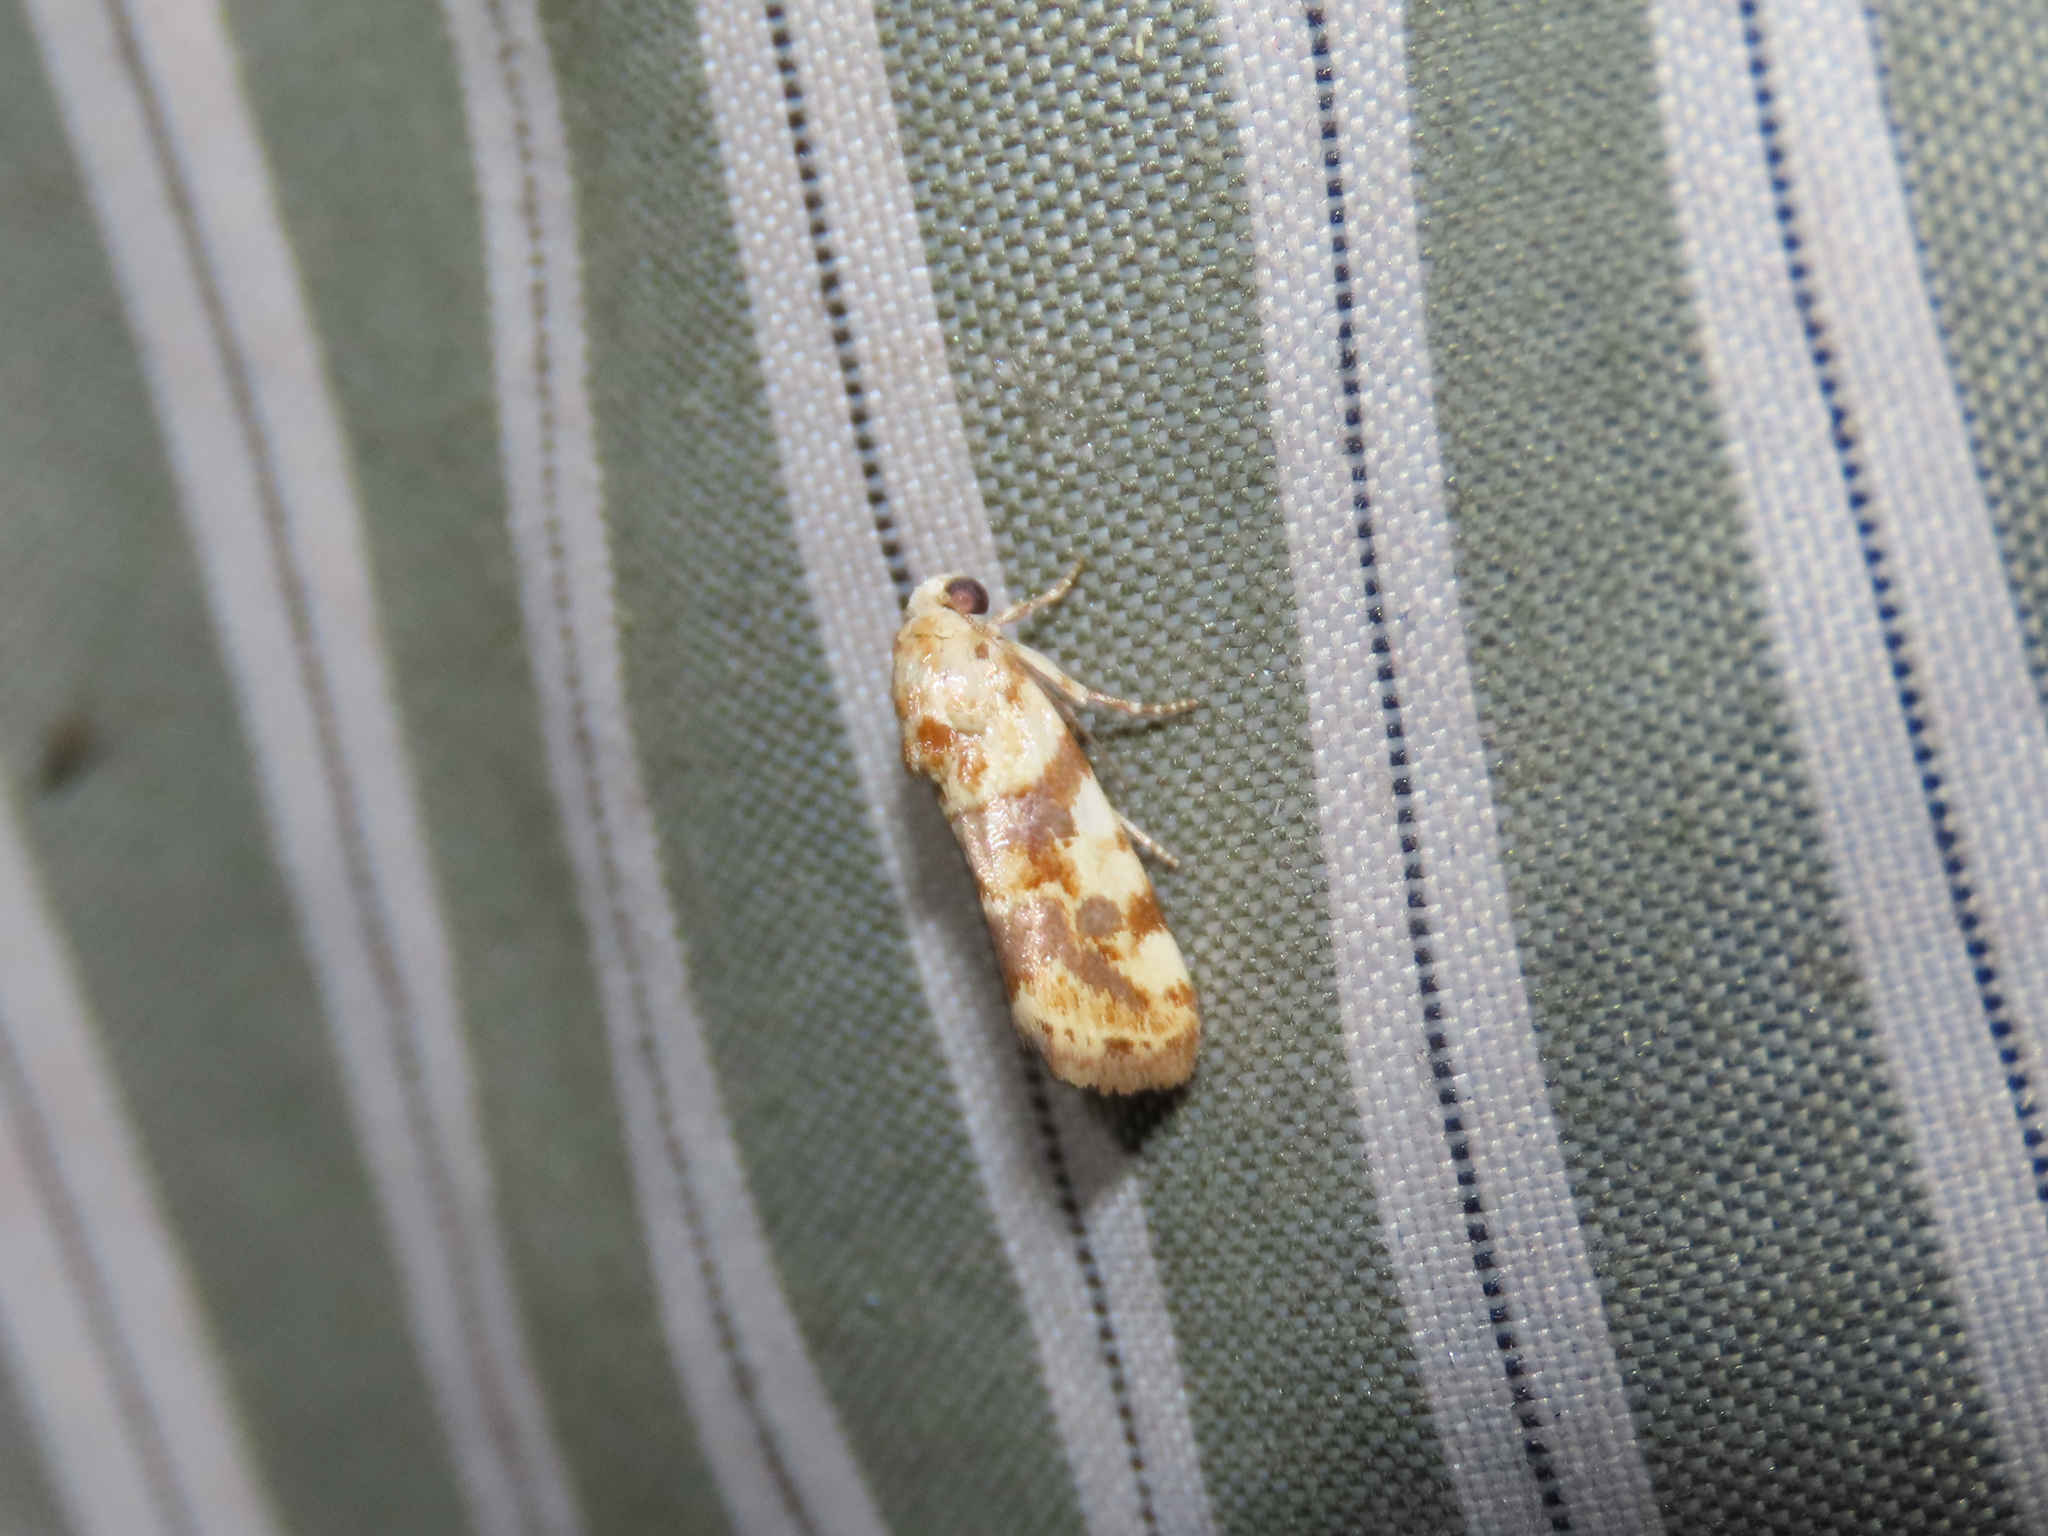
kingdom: Animalia
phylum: Arthropoda
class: Insecta
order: Lepidoptera
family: Noctuidae
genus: Acontia
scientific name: Acontia obatra
